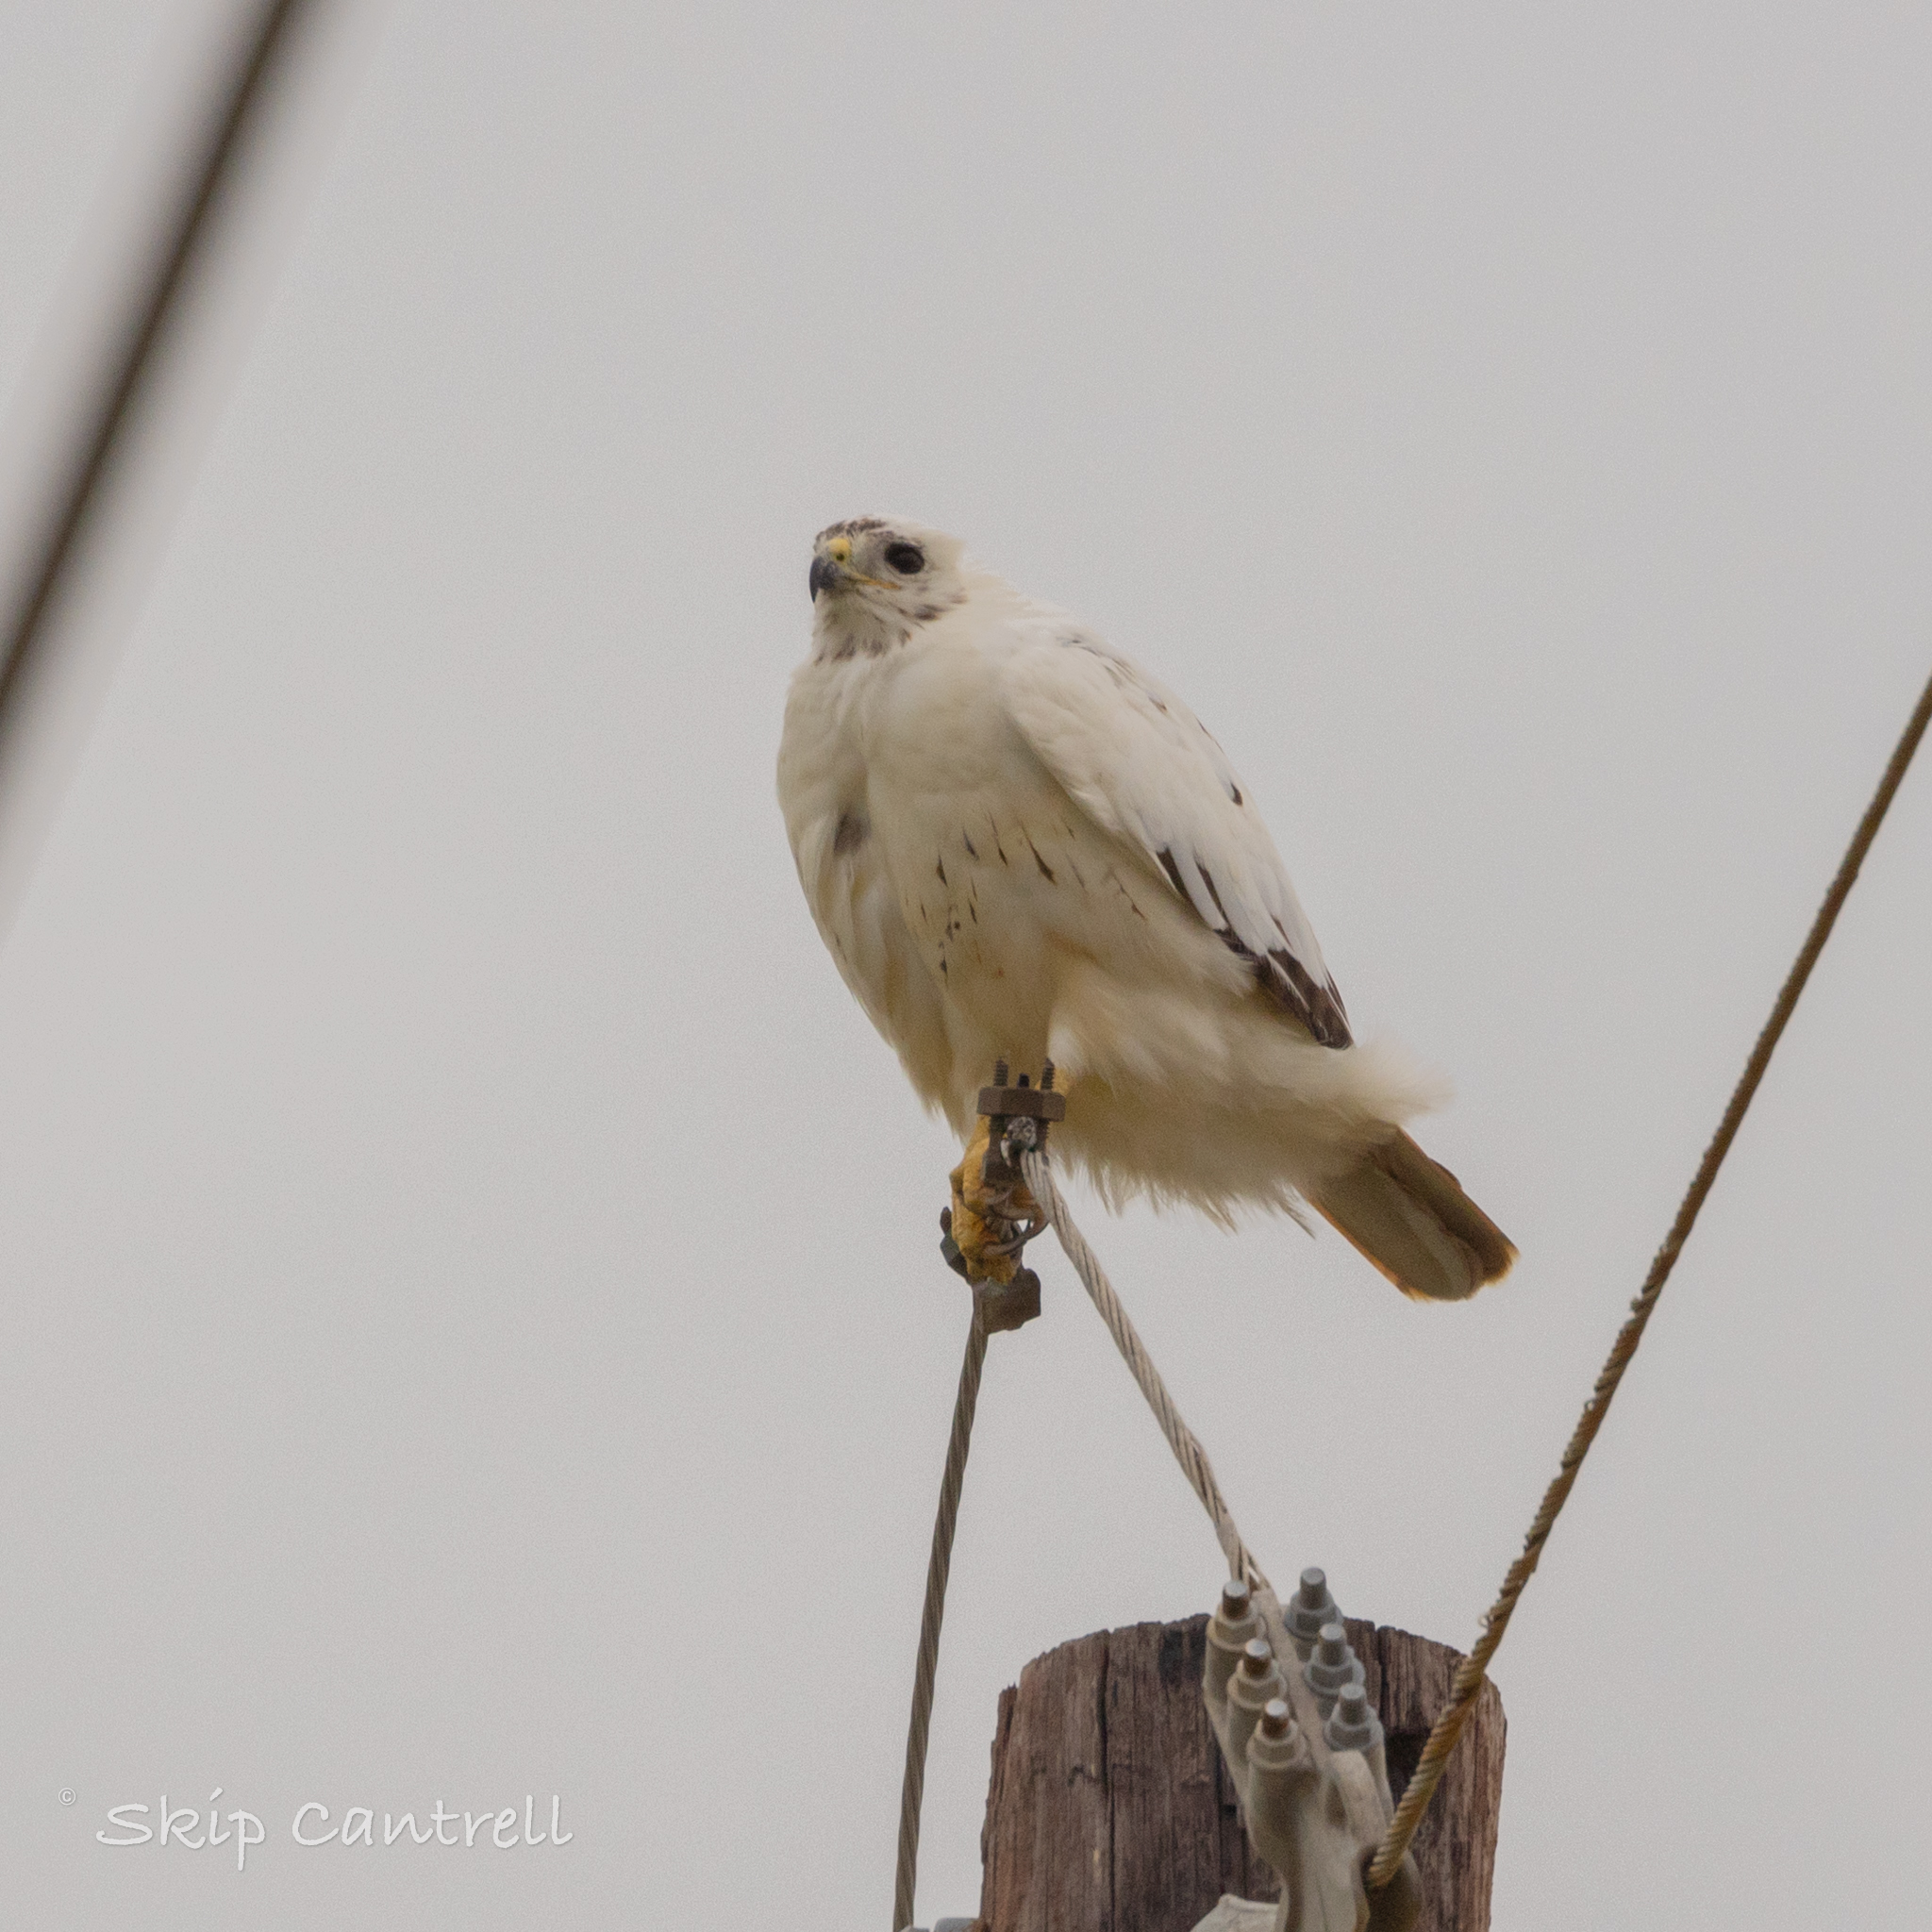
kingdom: Animalia
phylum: Chordata
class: Aves
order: Accipitriformes
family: Accipitridae
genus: Buteo
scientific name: Buteo jamaicensis
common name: Red-tailed hawk
